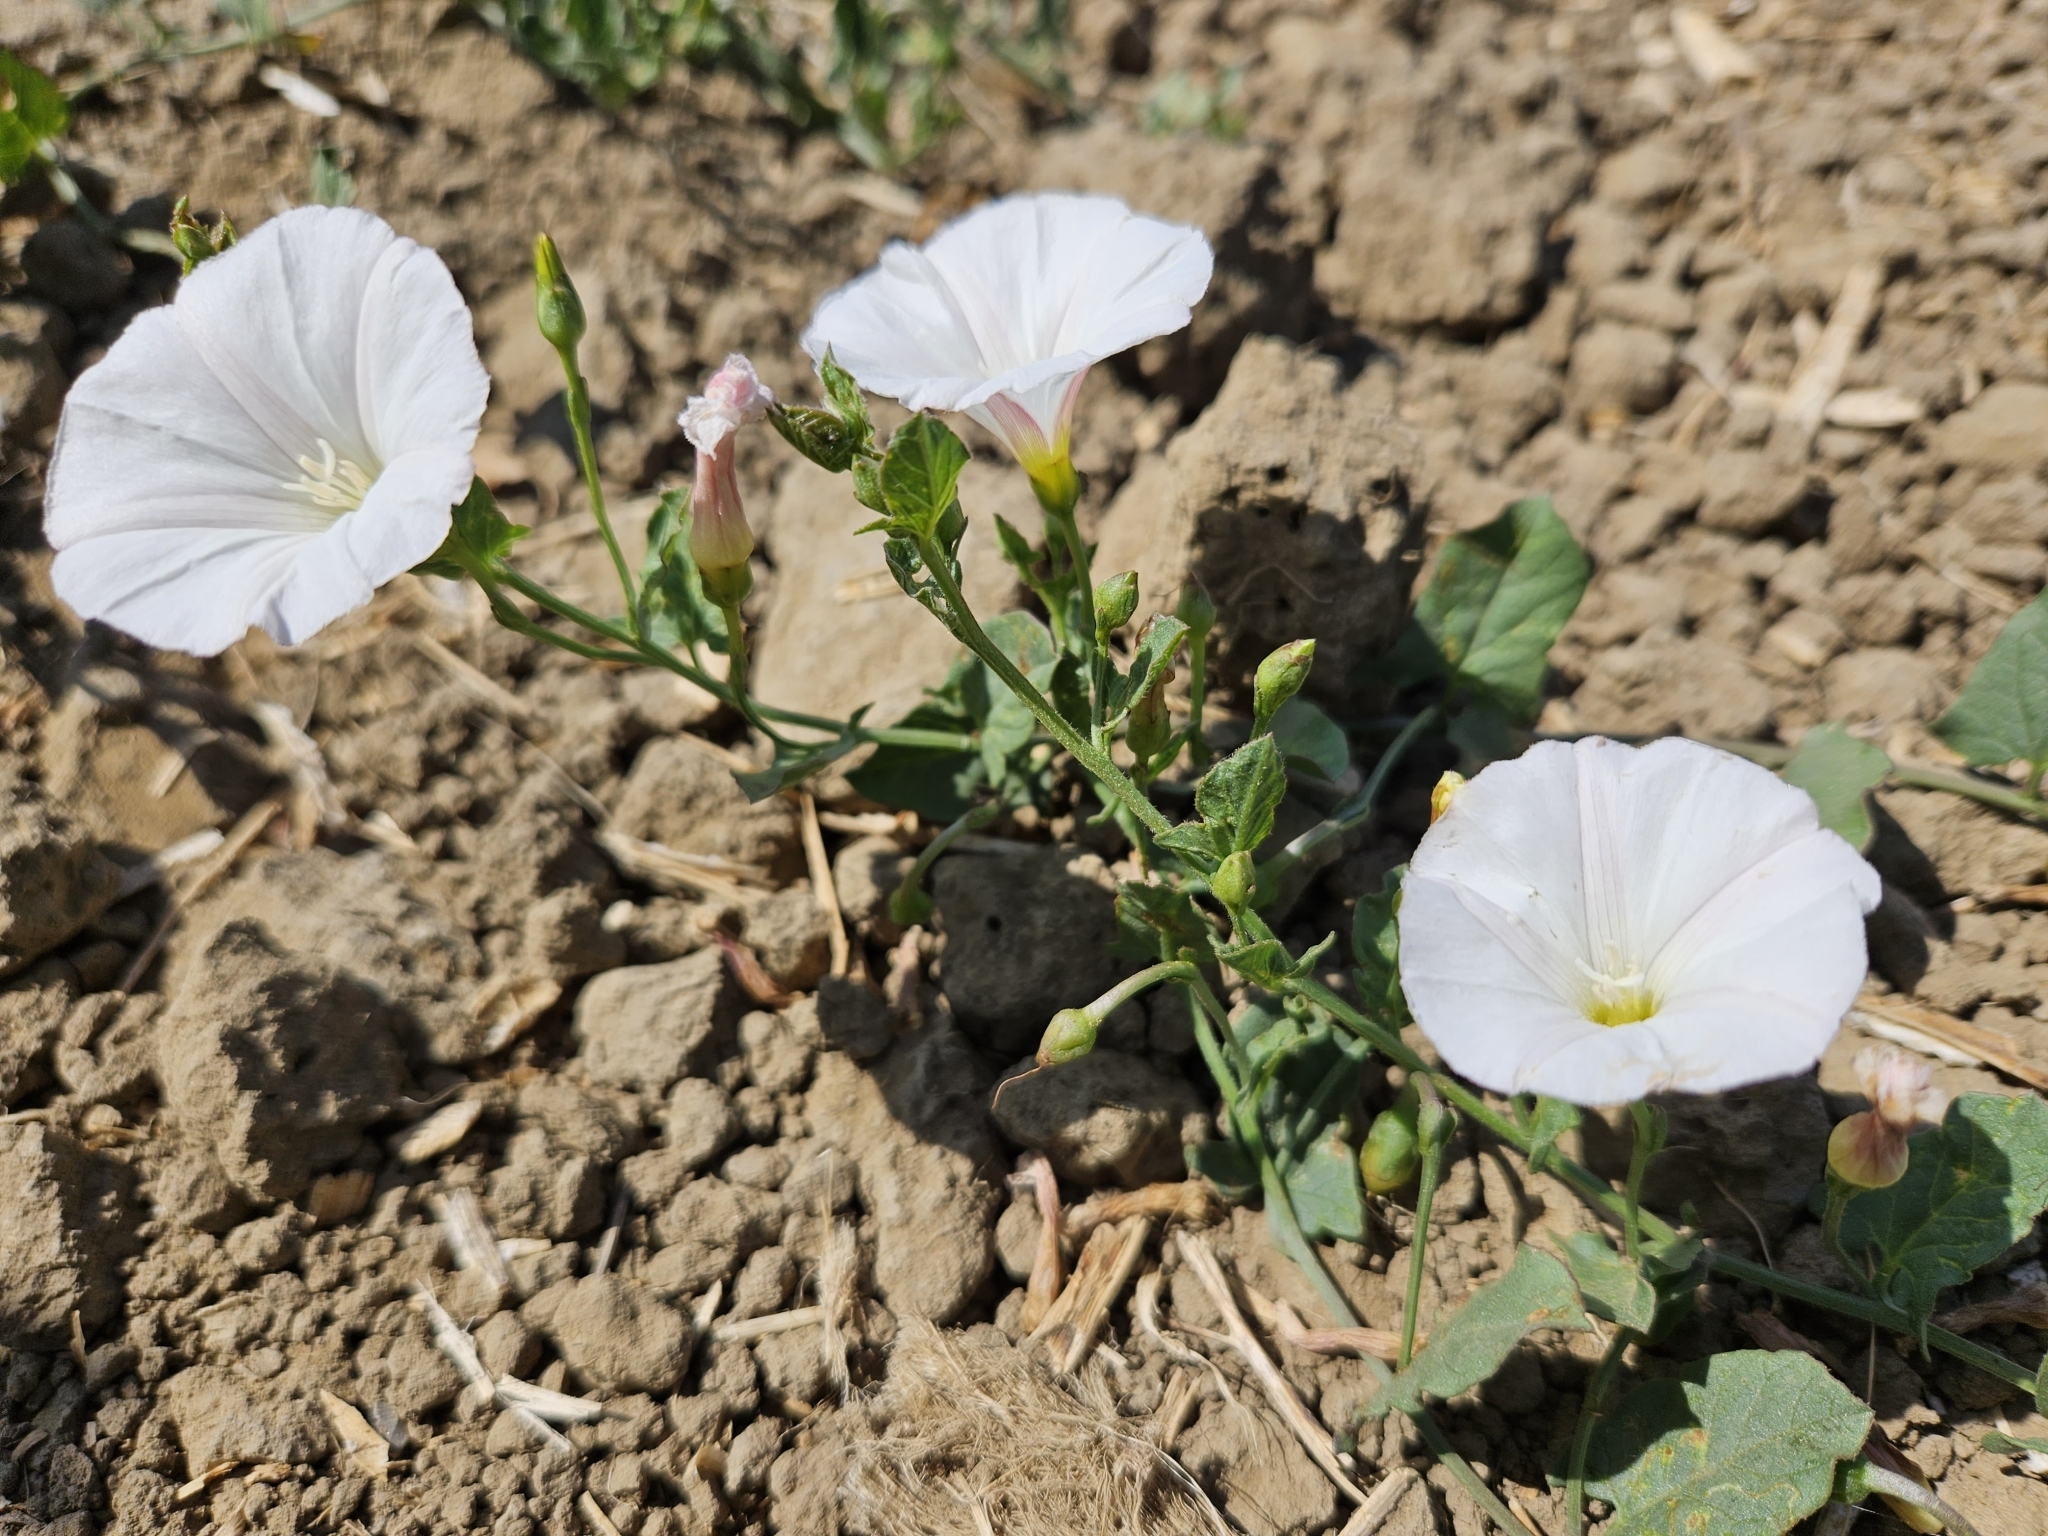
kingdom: Plantae
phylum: Tracheophyta
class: Magnoliopsida
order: Solanales
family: Convolvulaceae
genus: Convolvulus
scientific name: Convolvulus arvensis
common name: Field bindweed
